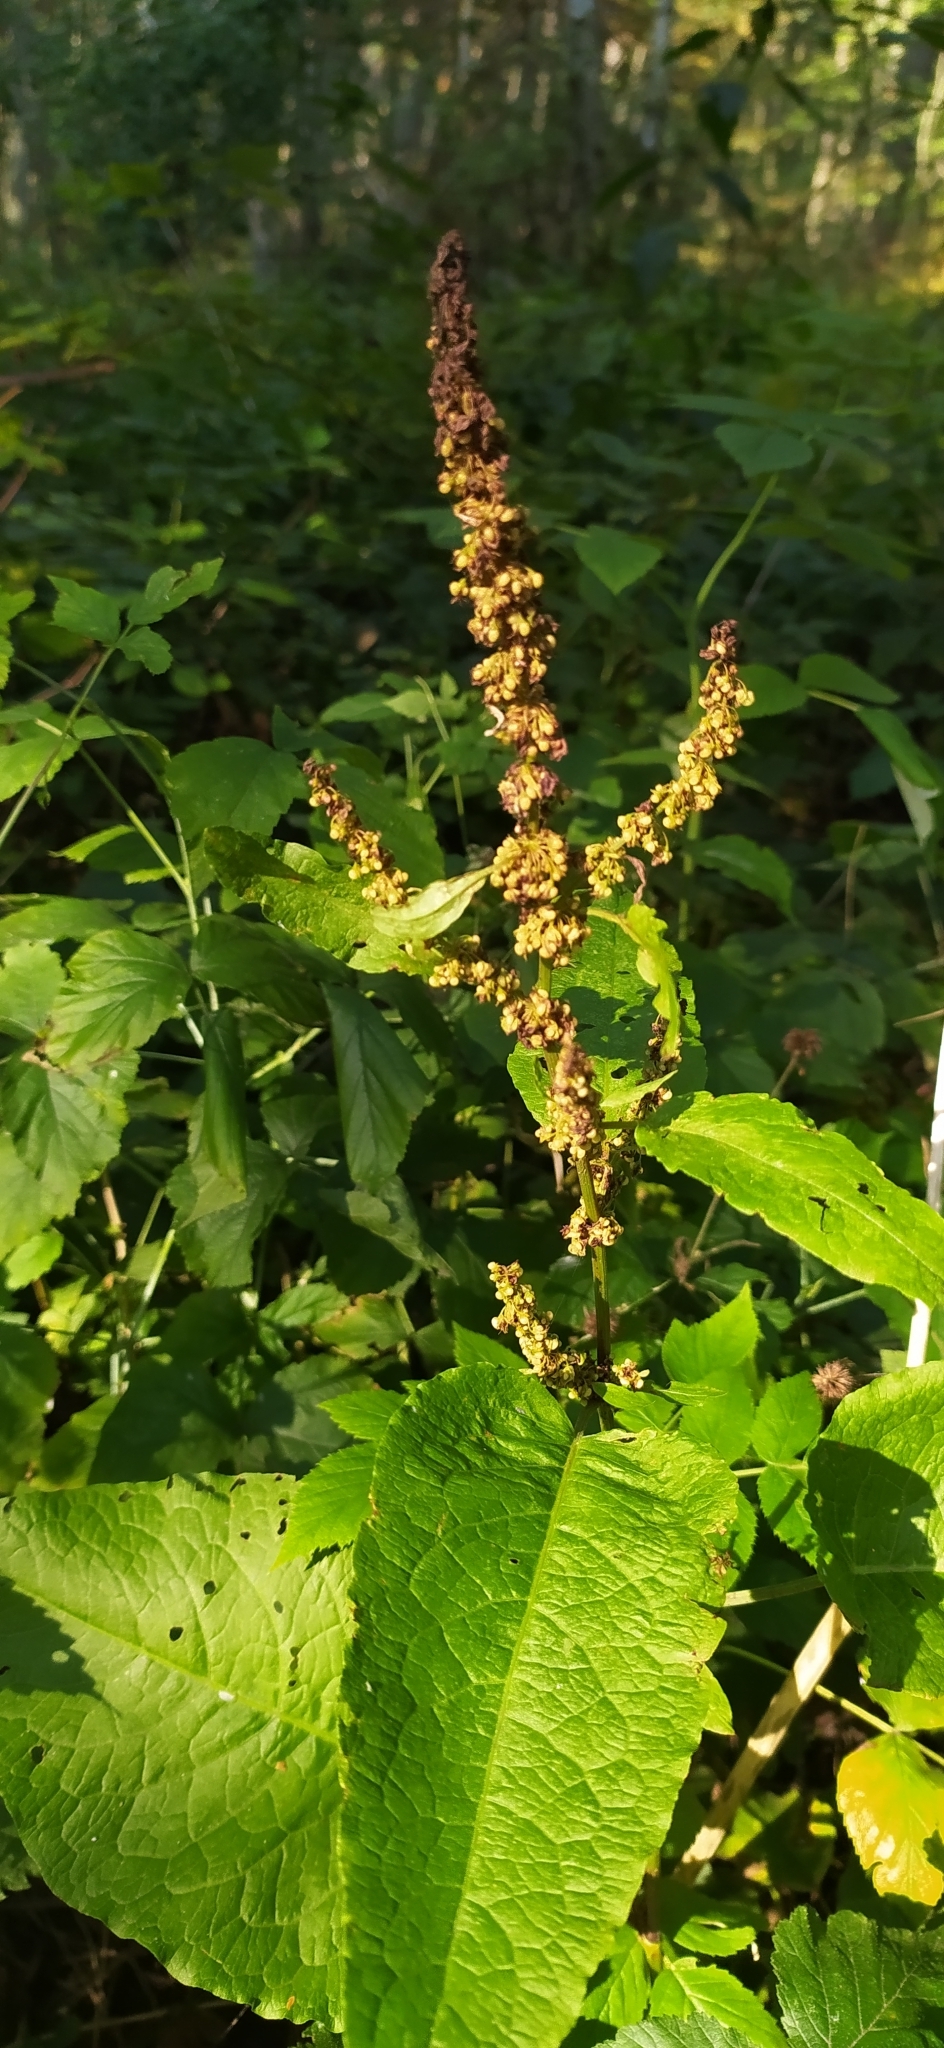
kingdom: Plantae
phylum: Tracheophyta
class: Magnoliopsida
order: Caryophyllales
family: Polygonaceae
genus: Rumex
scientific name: Rumex obtusifolius
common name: Bitter dock
